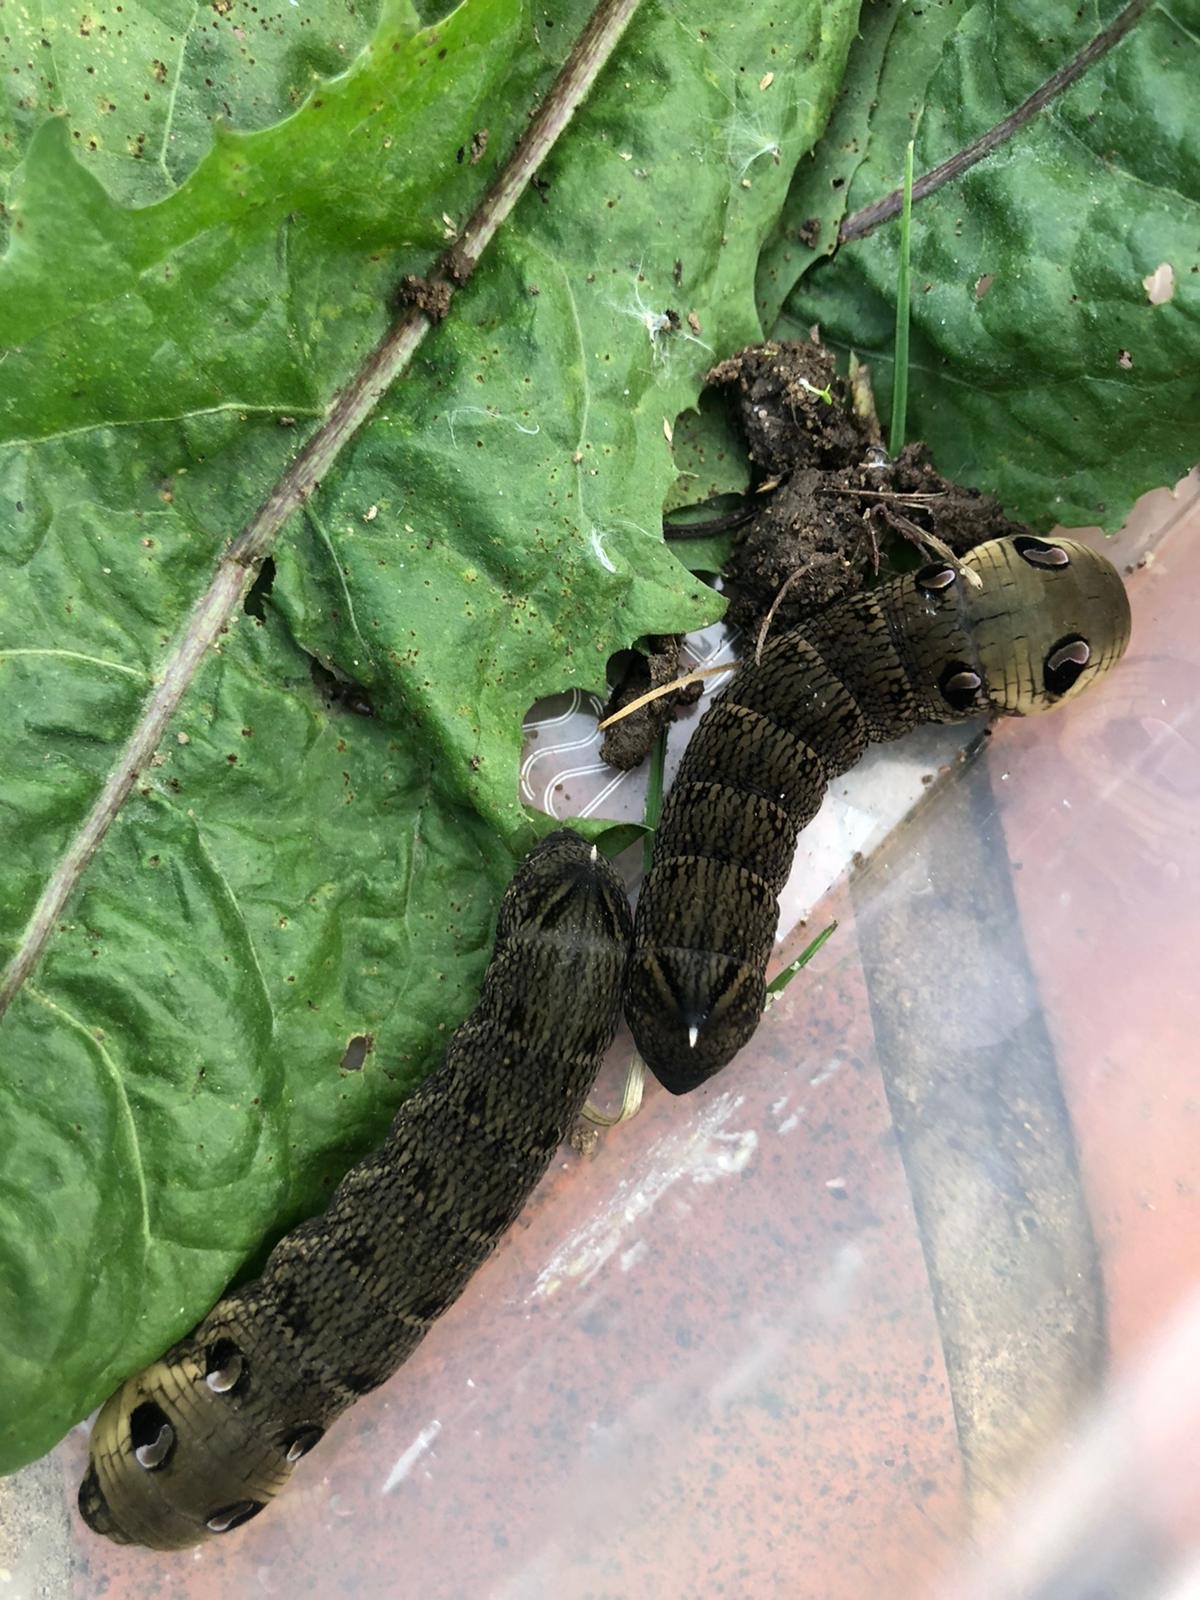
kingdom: Animalia
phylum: Arthropoda
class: Insecta
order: Lepidoptera
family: Sphingidae
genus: Deilephila
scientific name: Deilephila elpenor
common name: Elephant hawk-moth
